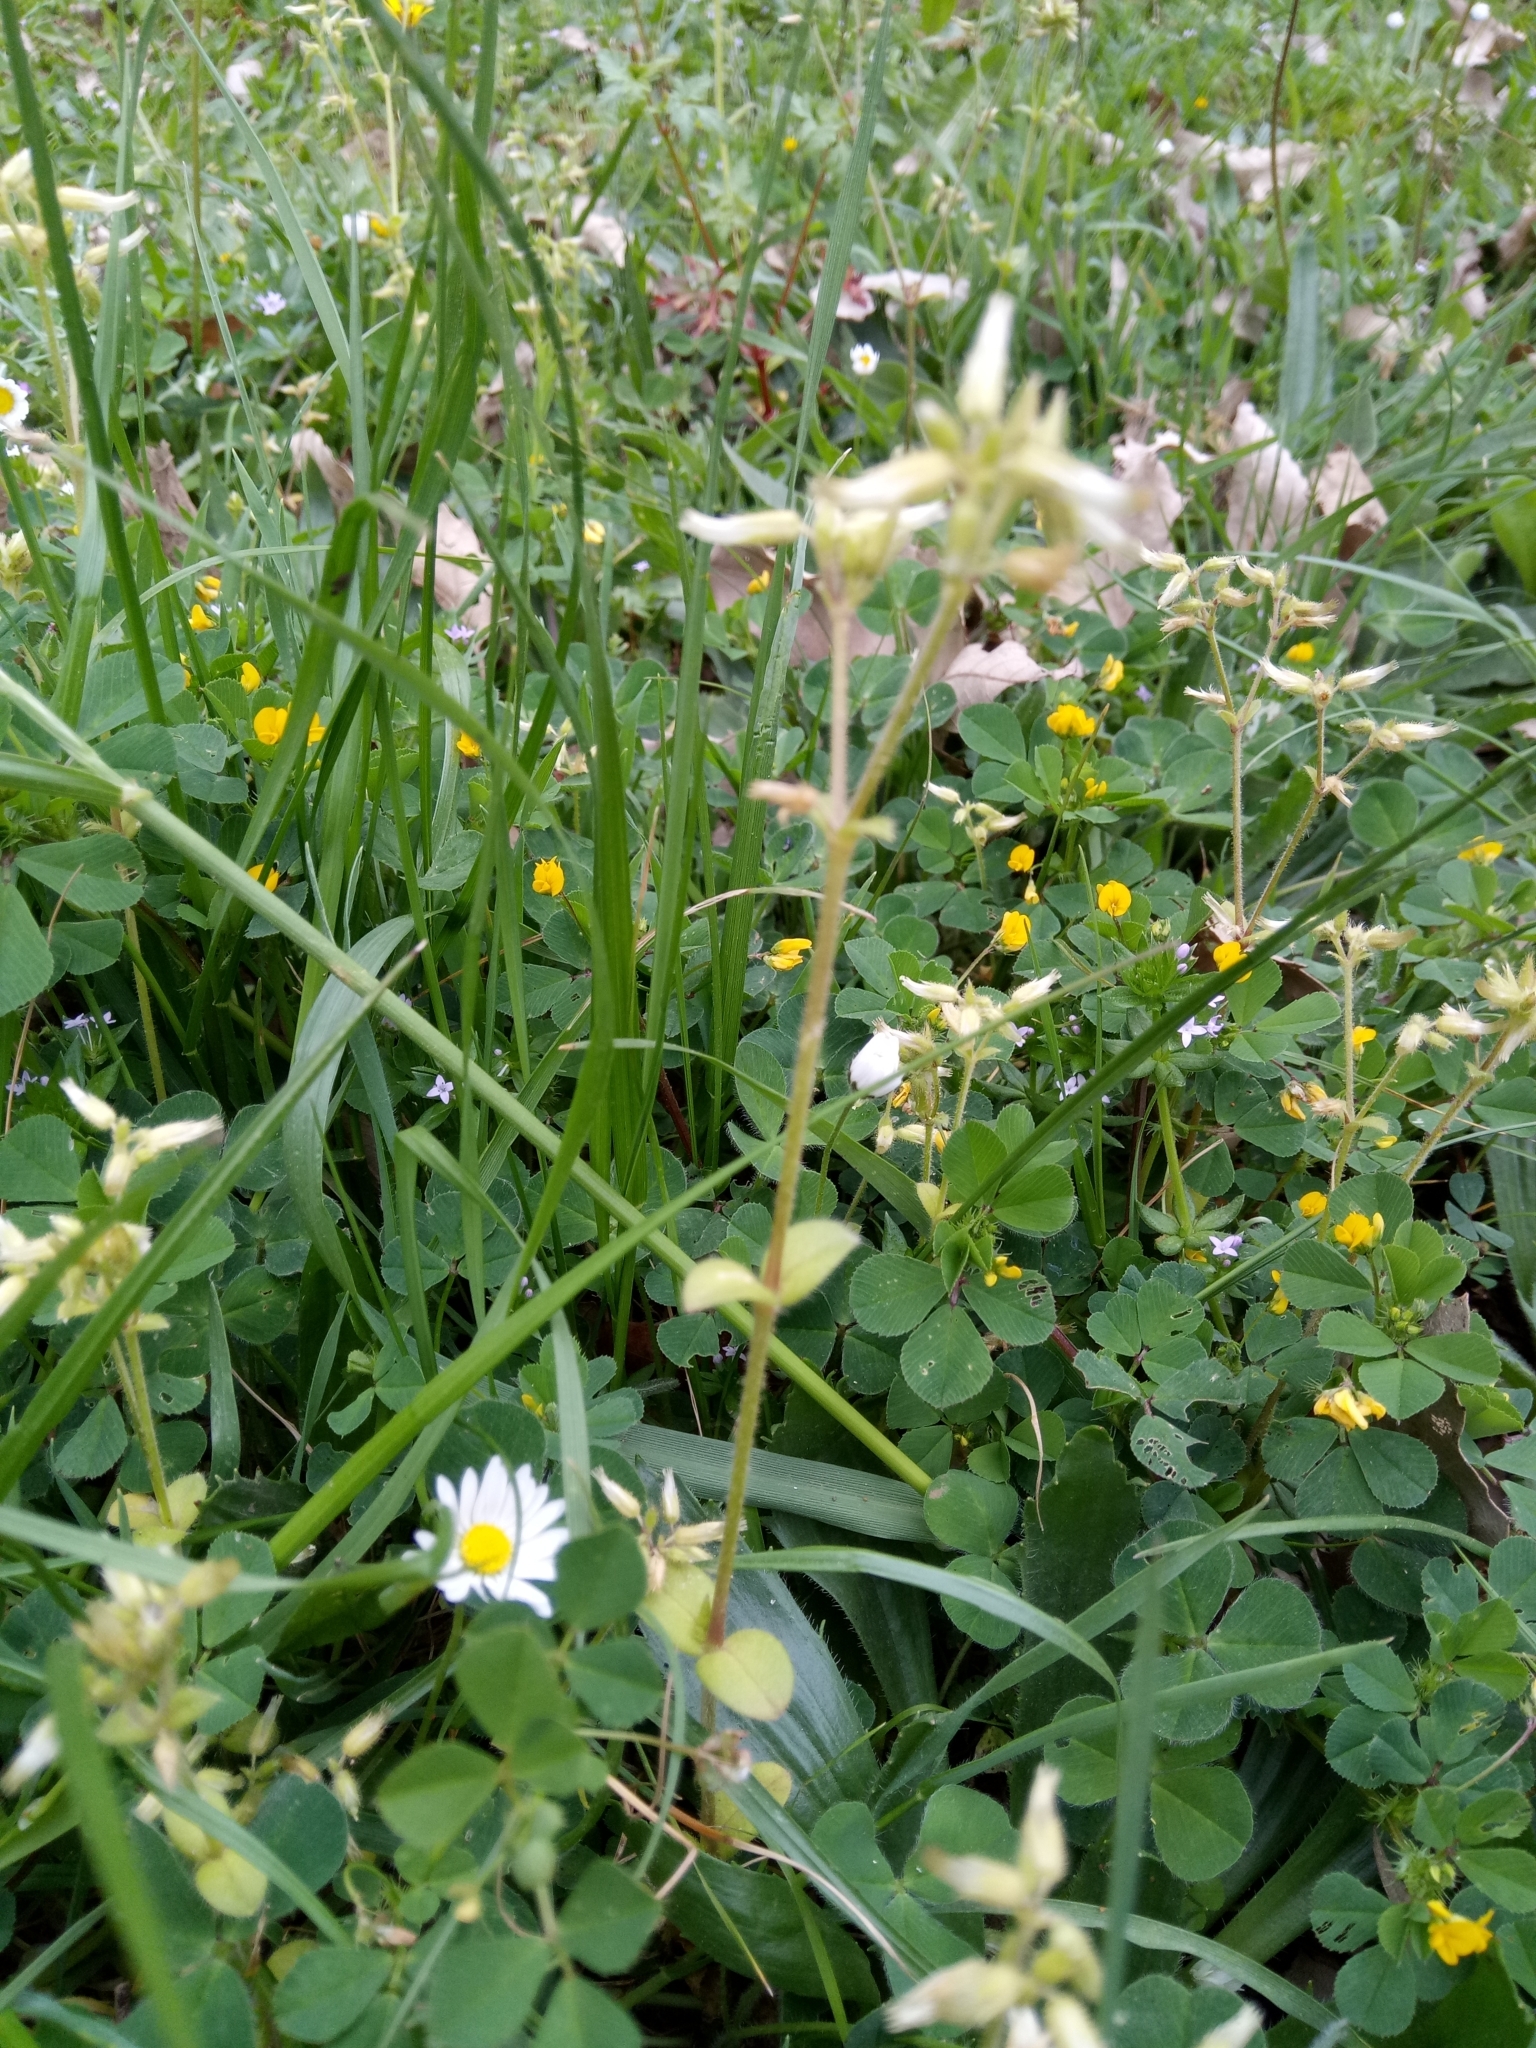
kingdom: Plantae
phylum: Tracheophyta
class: Magnoliopsida
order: Caryophyllales
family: Caryophyllaceae
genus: Cerastium
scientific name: Cerastium glomeratum
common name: Sticky chickweed
